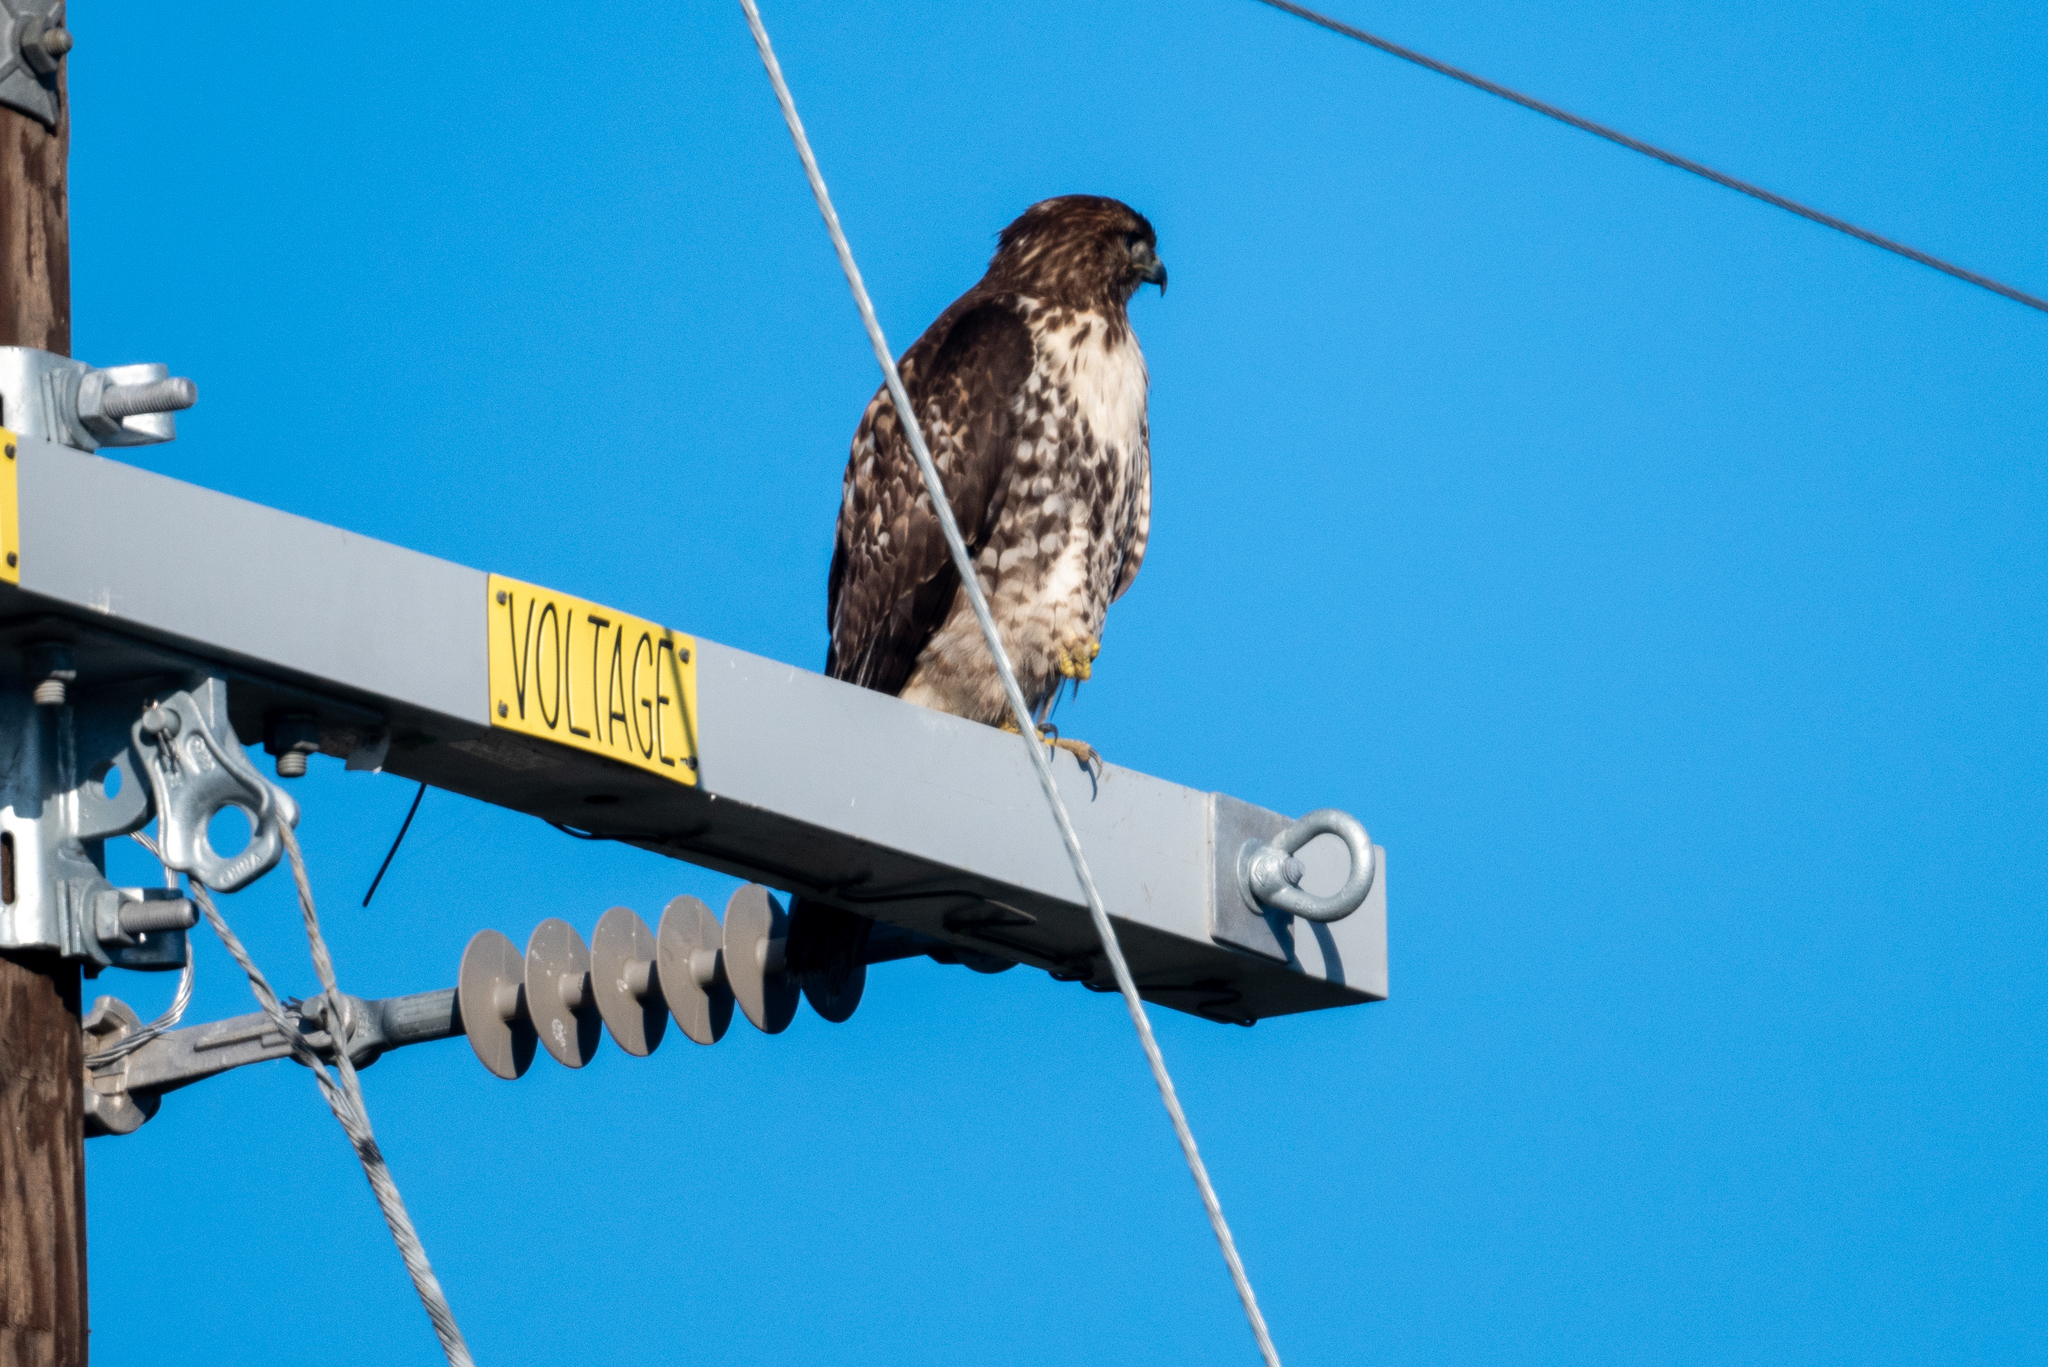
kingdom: Animalia
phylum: Chordata
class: Aves
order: Accipitriformes
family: Accipitridae
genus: Buteo
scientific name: Buteo jamaicensis
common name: Red-tailed hawk
